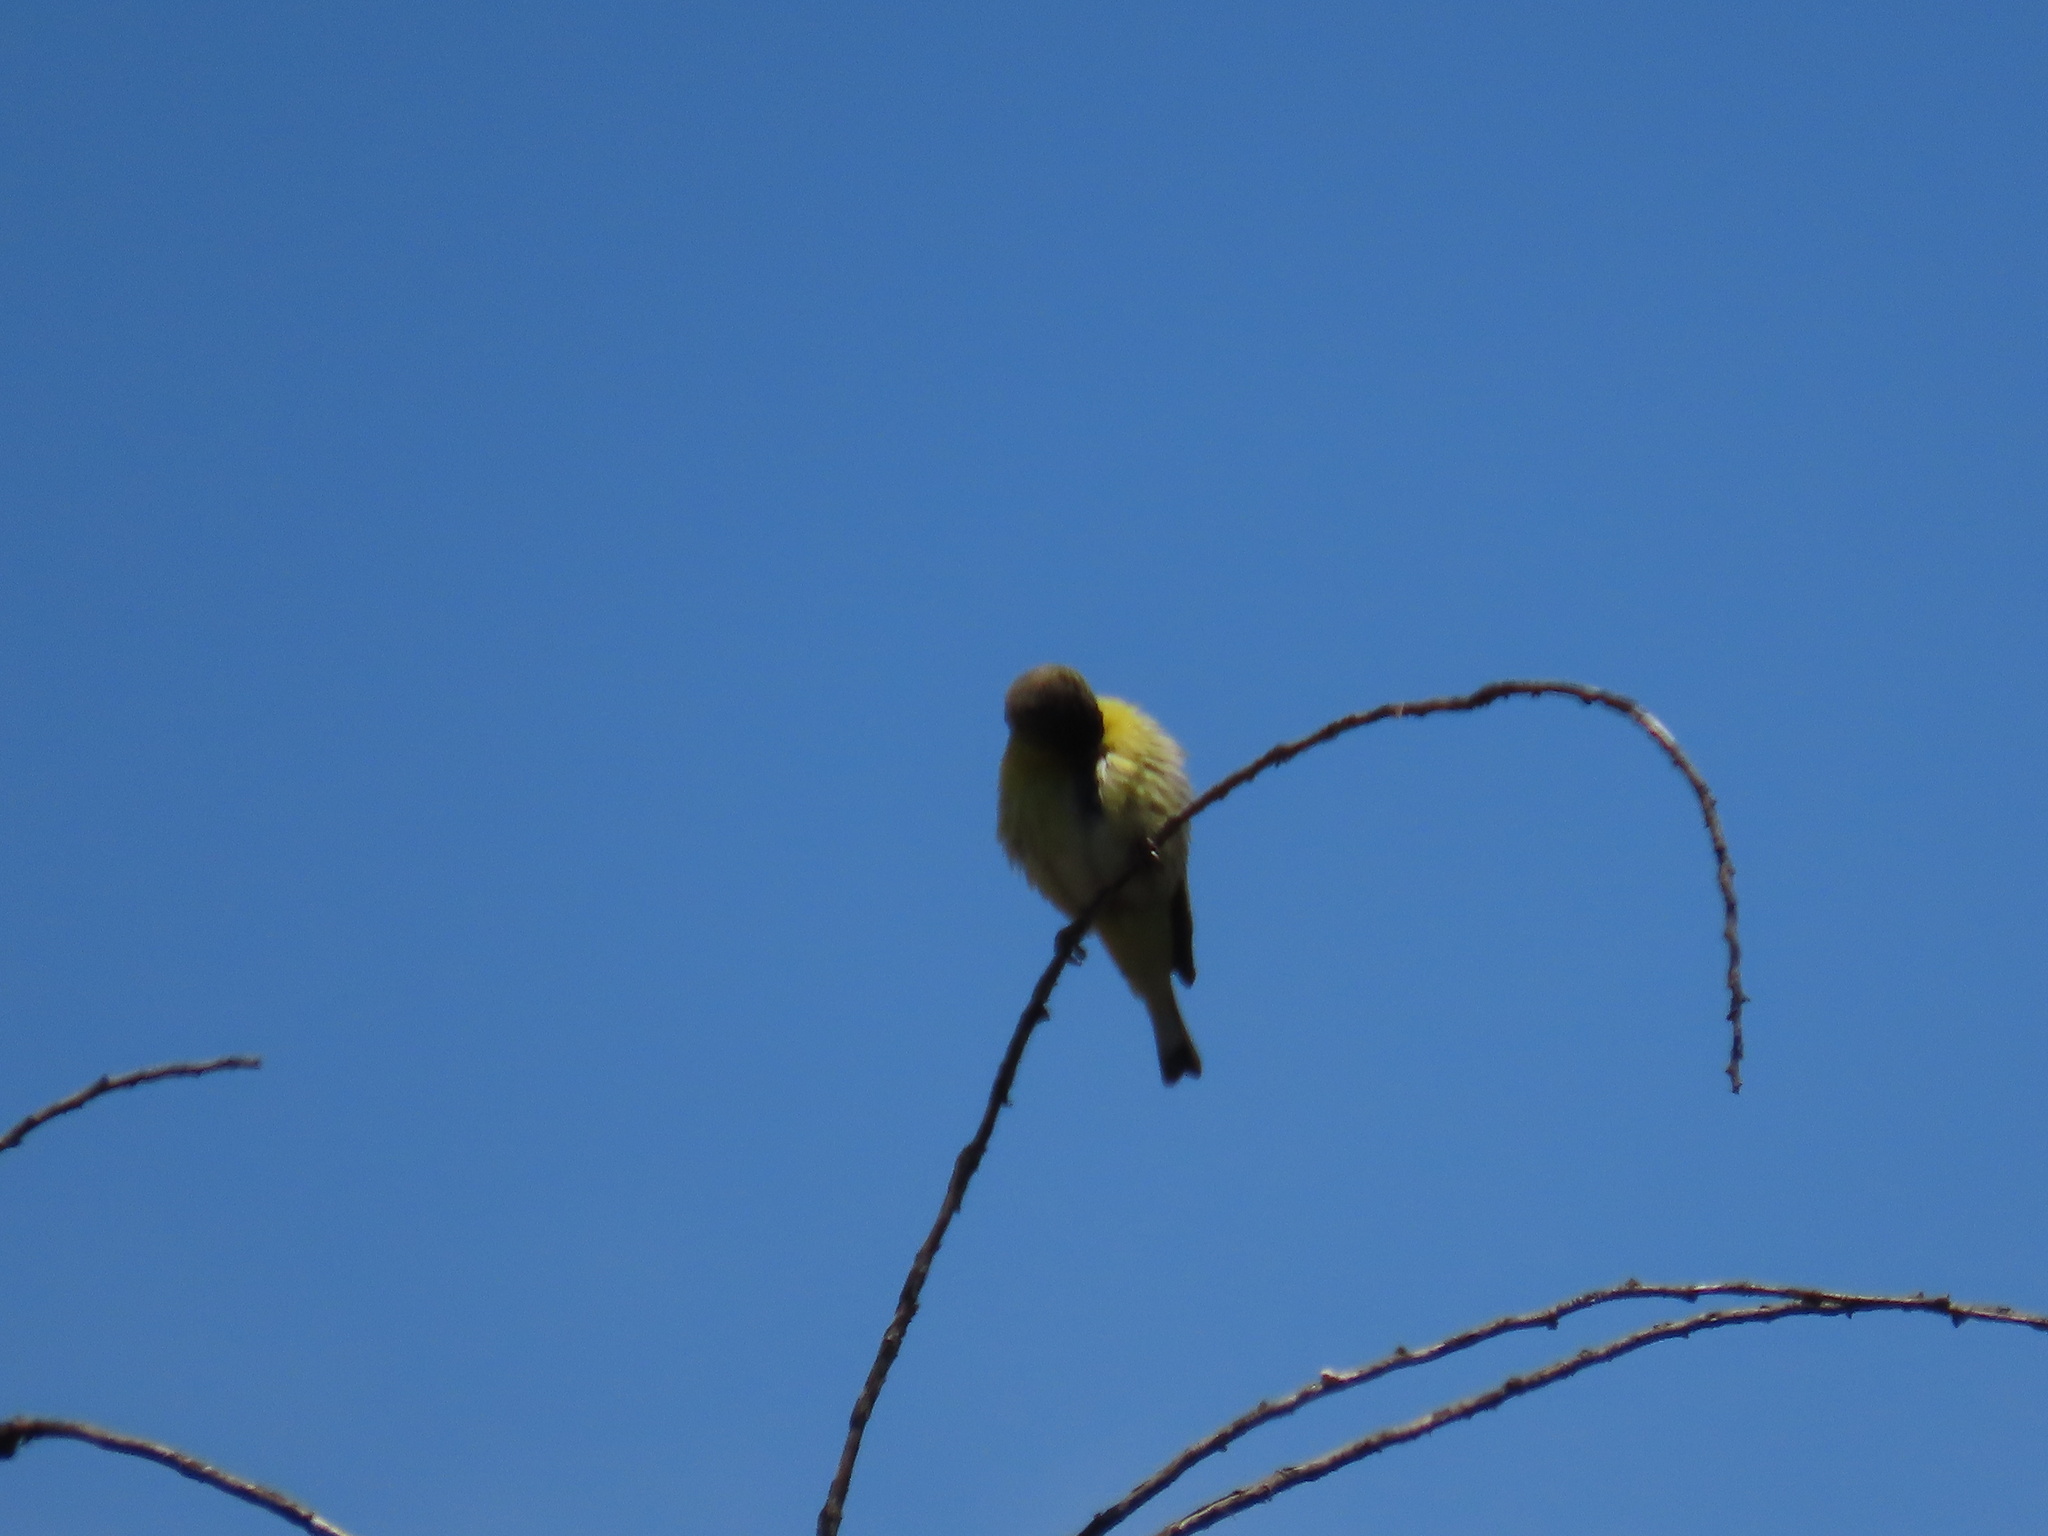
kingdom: Animalia
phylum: Chordata
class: Aves
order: Passeriformes
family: Fringillidae
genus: Spinus
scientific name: Spinus psaltria
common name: Lesser goldfinch
